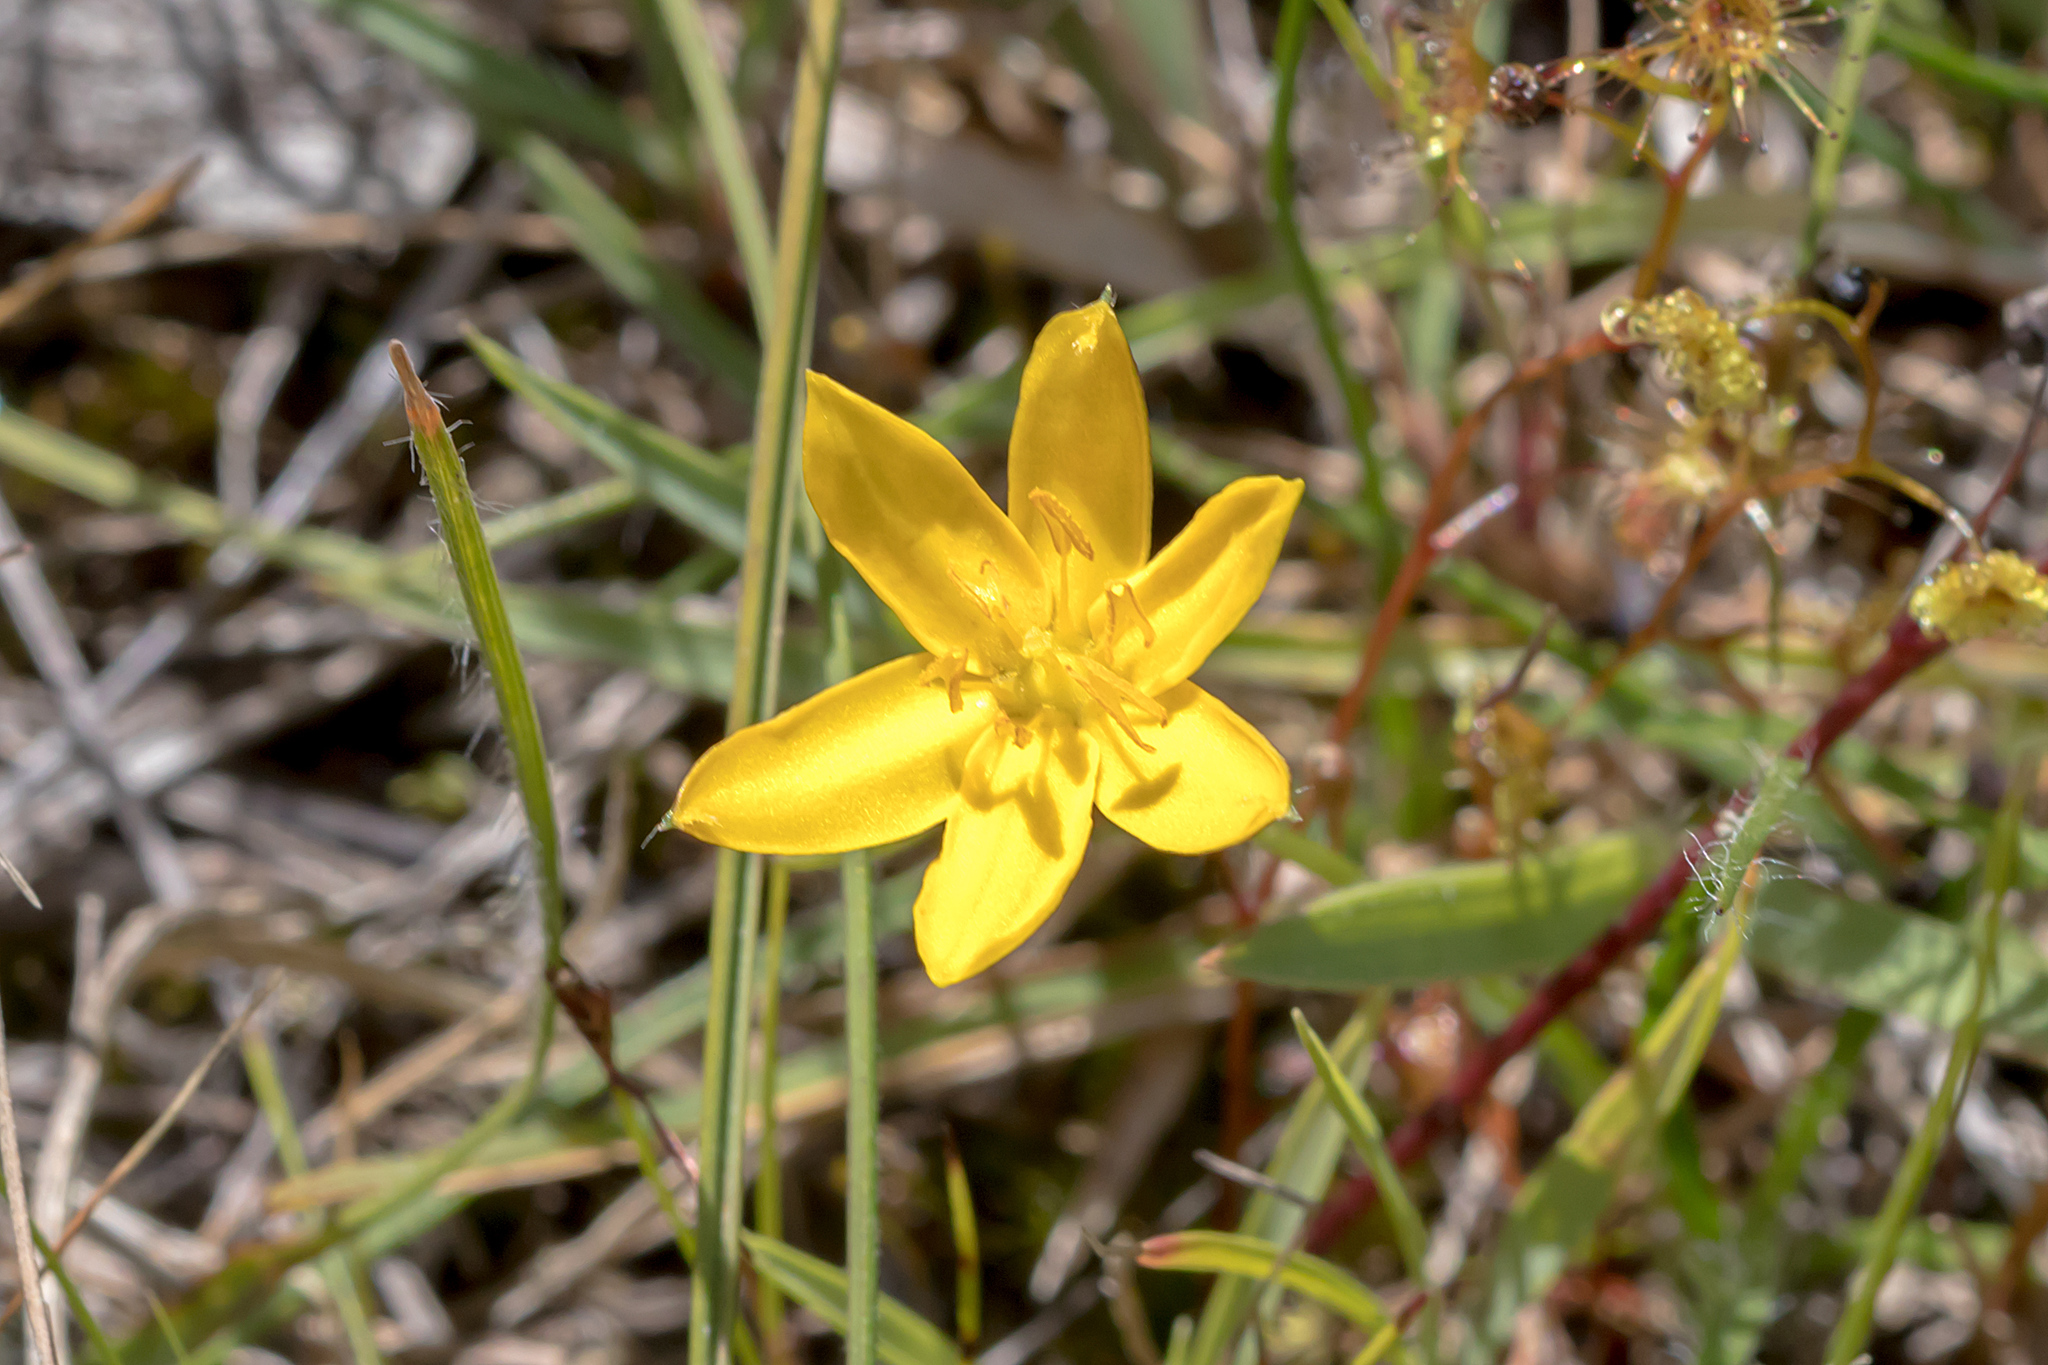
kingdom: Plantae
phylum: Tracheophyta
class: Liliopsida
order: Asparagales
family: Hypoxidaceae
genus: Hypoxis
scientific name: Hypoxis hygrometrica
